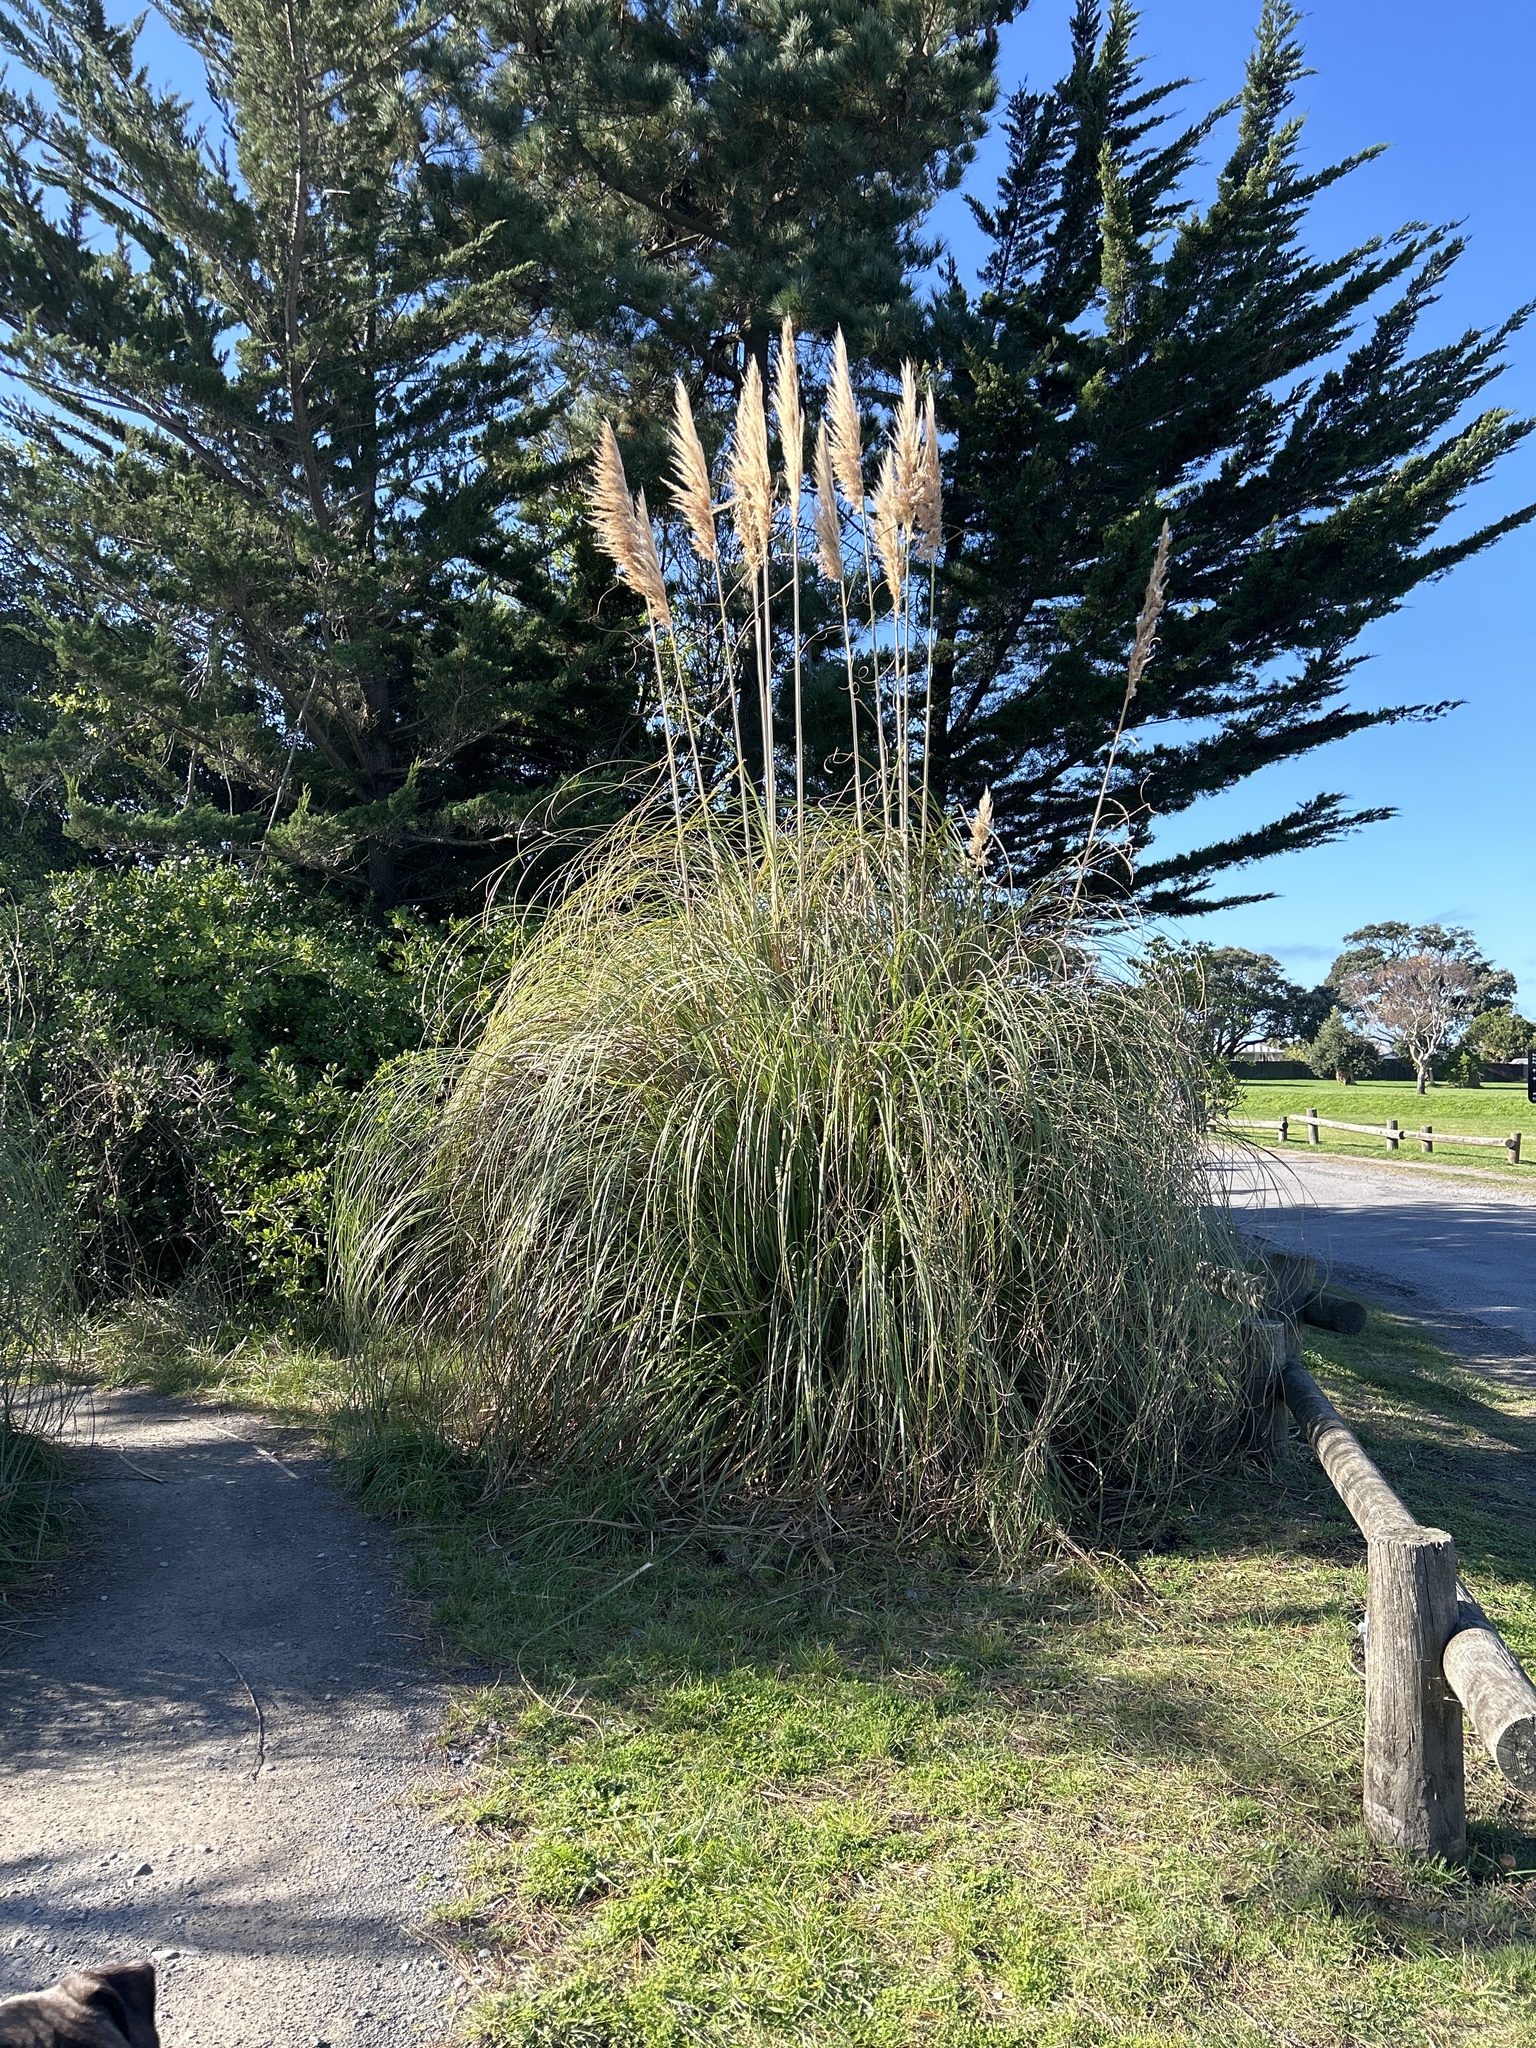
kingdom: Plantae
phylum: Tracheophyta
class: Liliopsida
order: Poales
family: Poaceae
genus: Cortaderia
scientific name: Cortaderia selloana
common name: Uruguayan pampas grass
